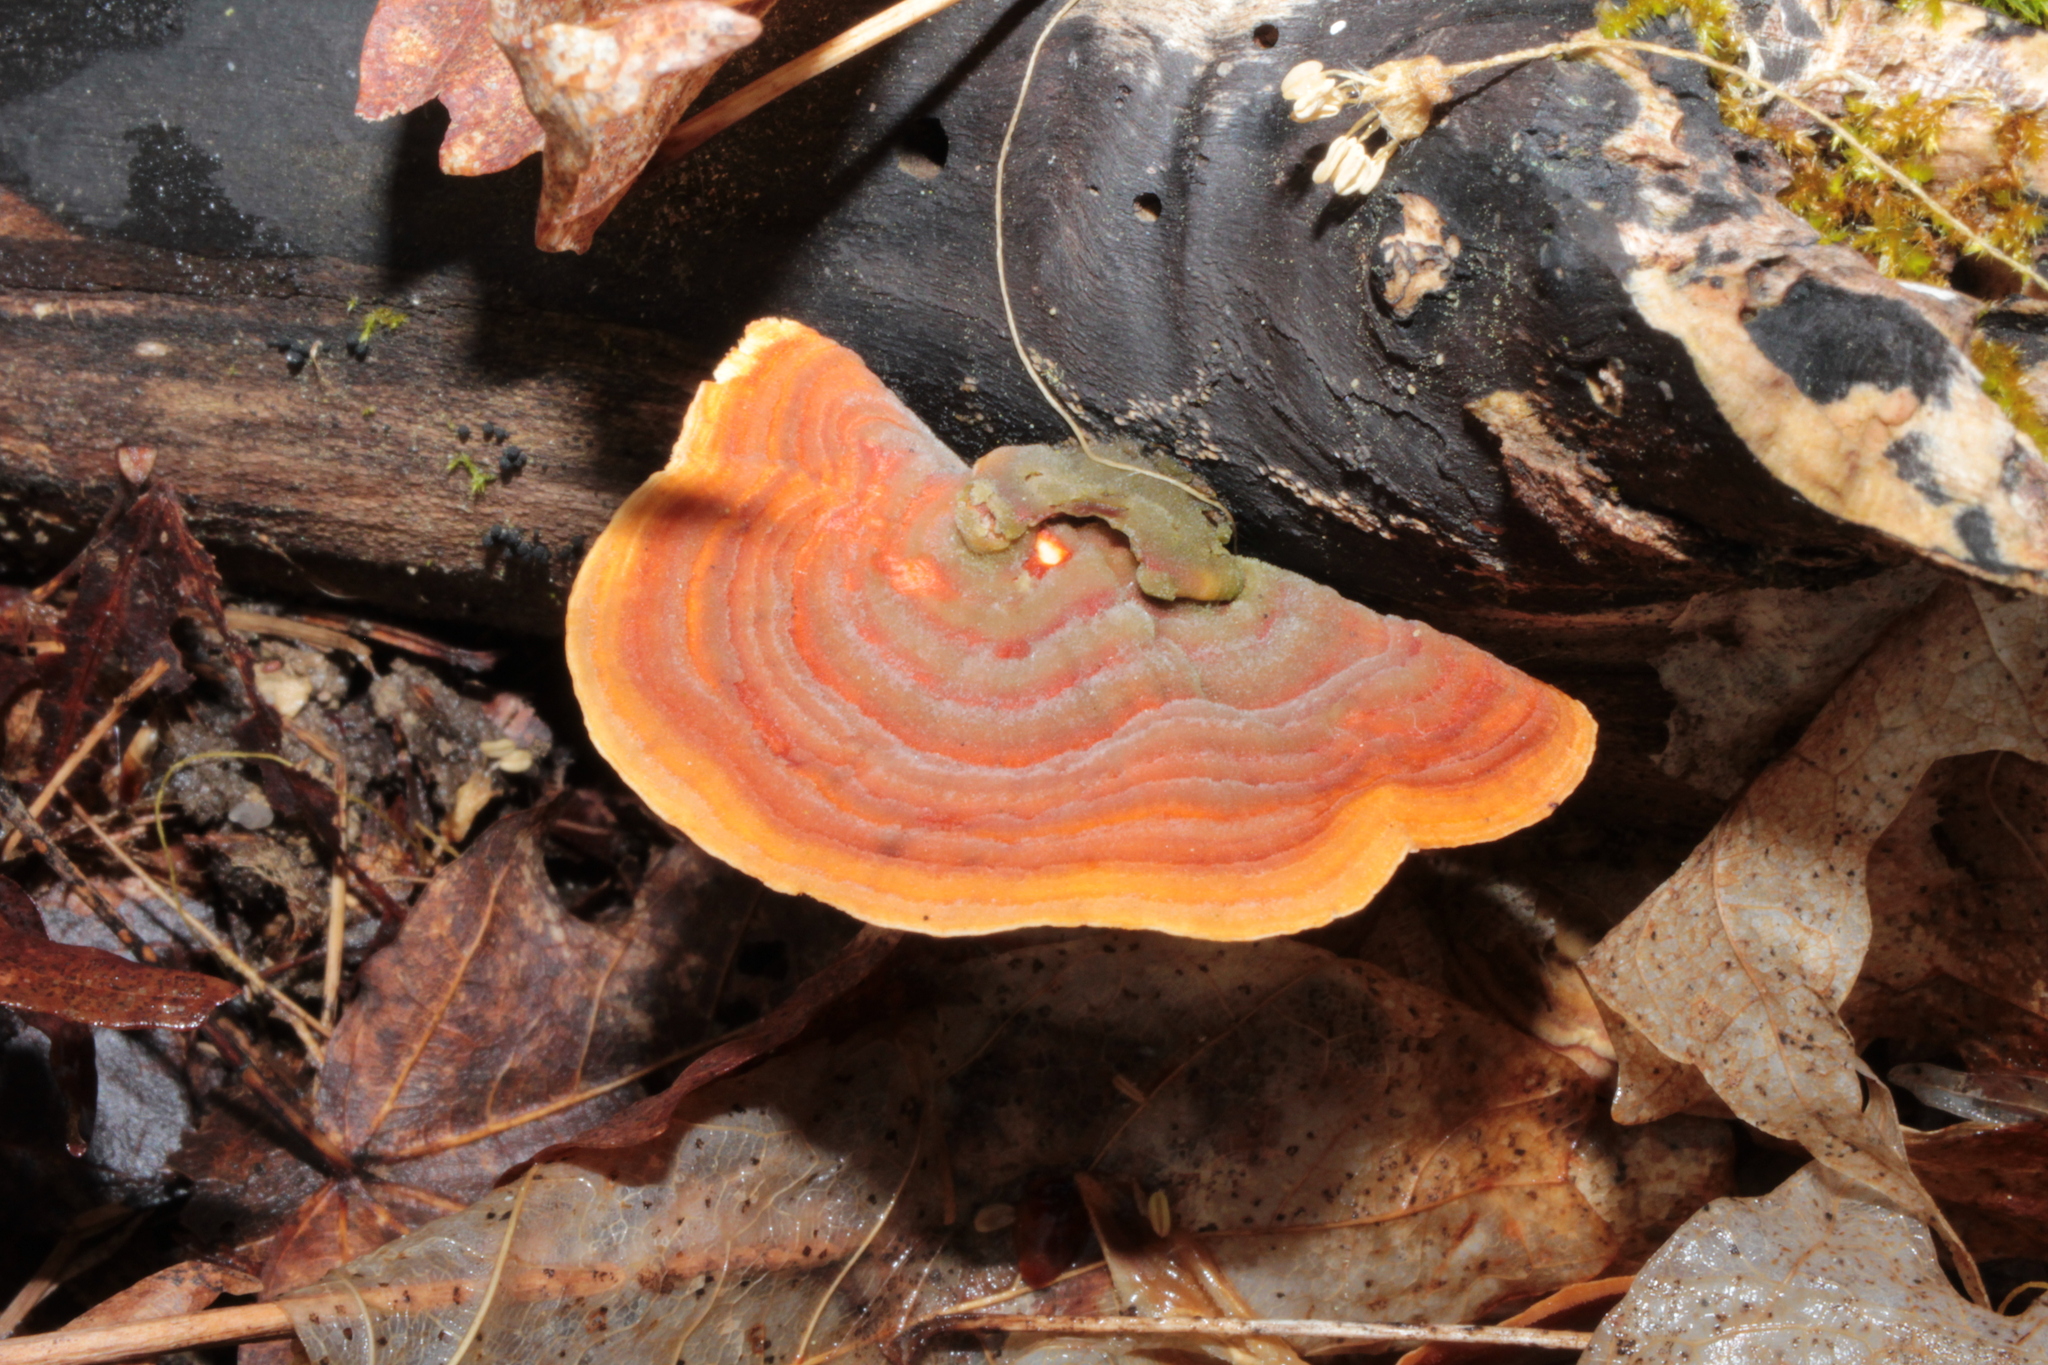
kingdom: Fungi
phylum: Basidiomycota
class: Agaricomycetes
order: Russulales
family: Stereaceae
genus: Stereum
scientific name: Stereum subtomentosum
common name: Yellowing curtain crust
